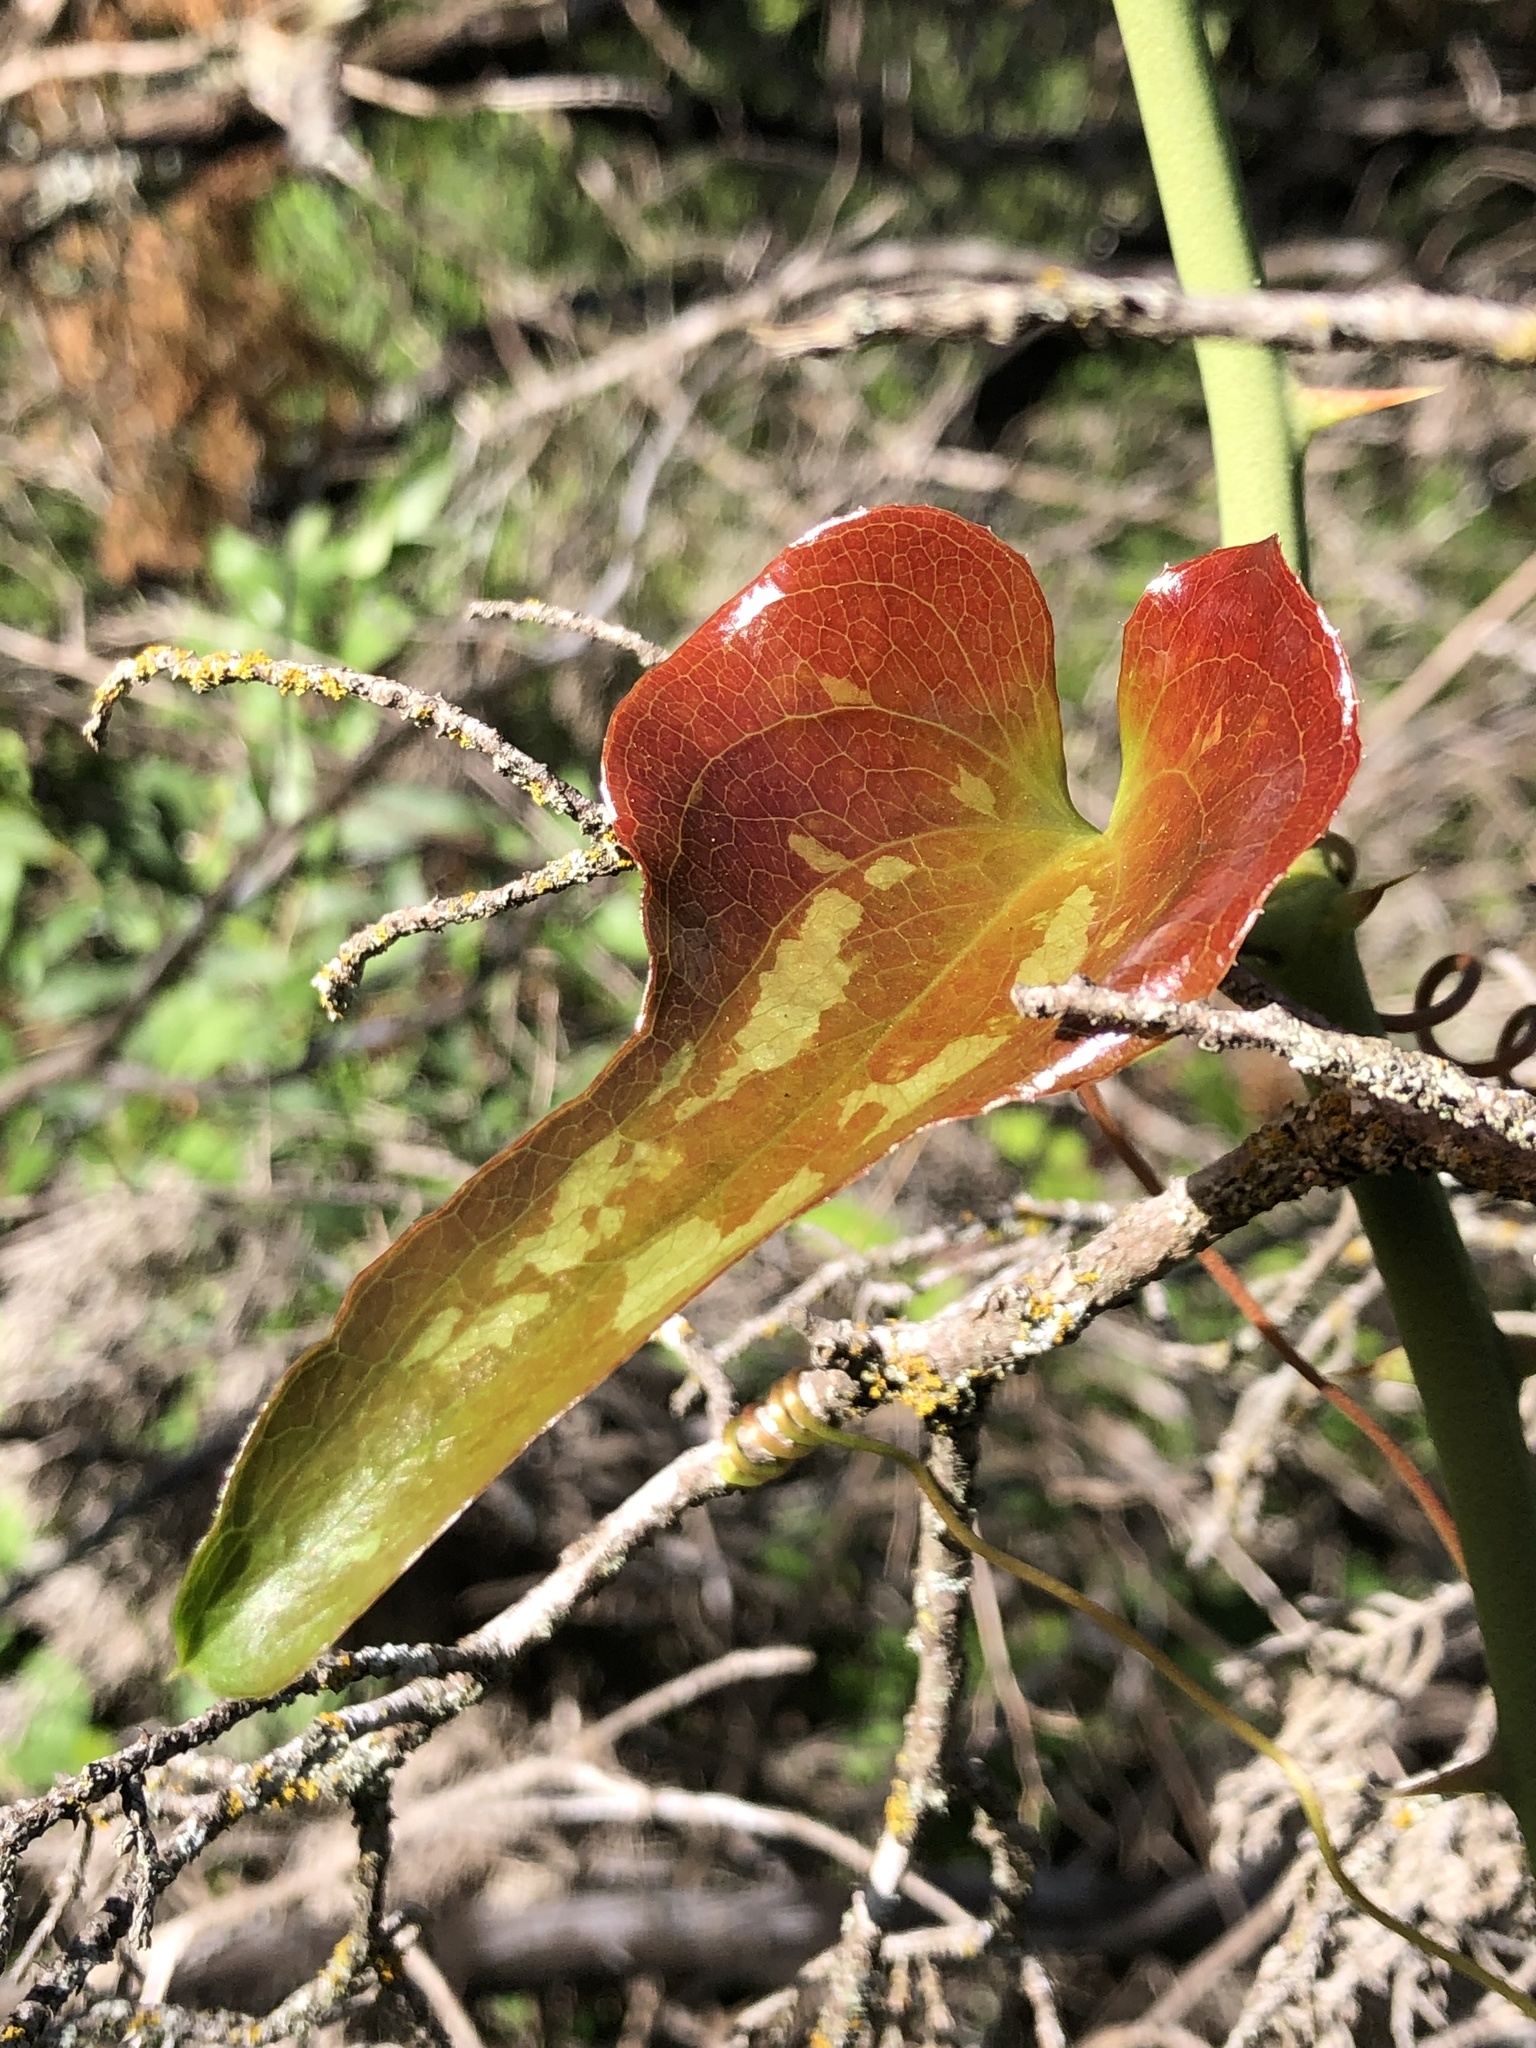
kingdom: Plantae
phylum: Tracheophyta
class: Liliopsida
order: Liliales
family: Smilacaceae
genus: Smilax
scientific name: Smilax bona-nox
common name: Catbrier
